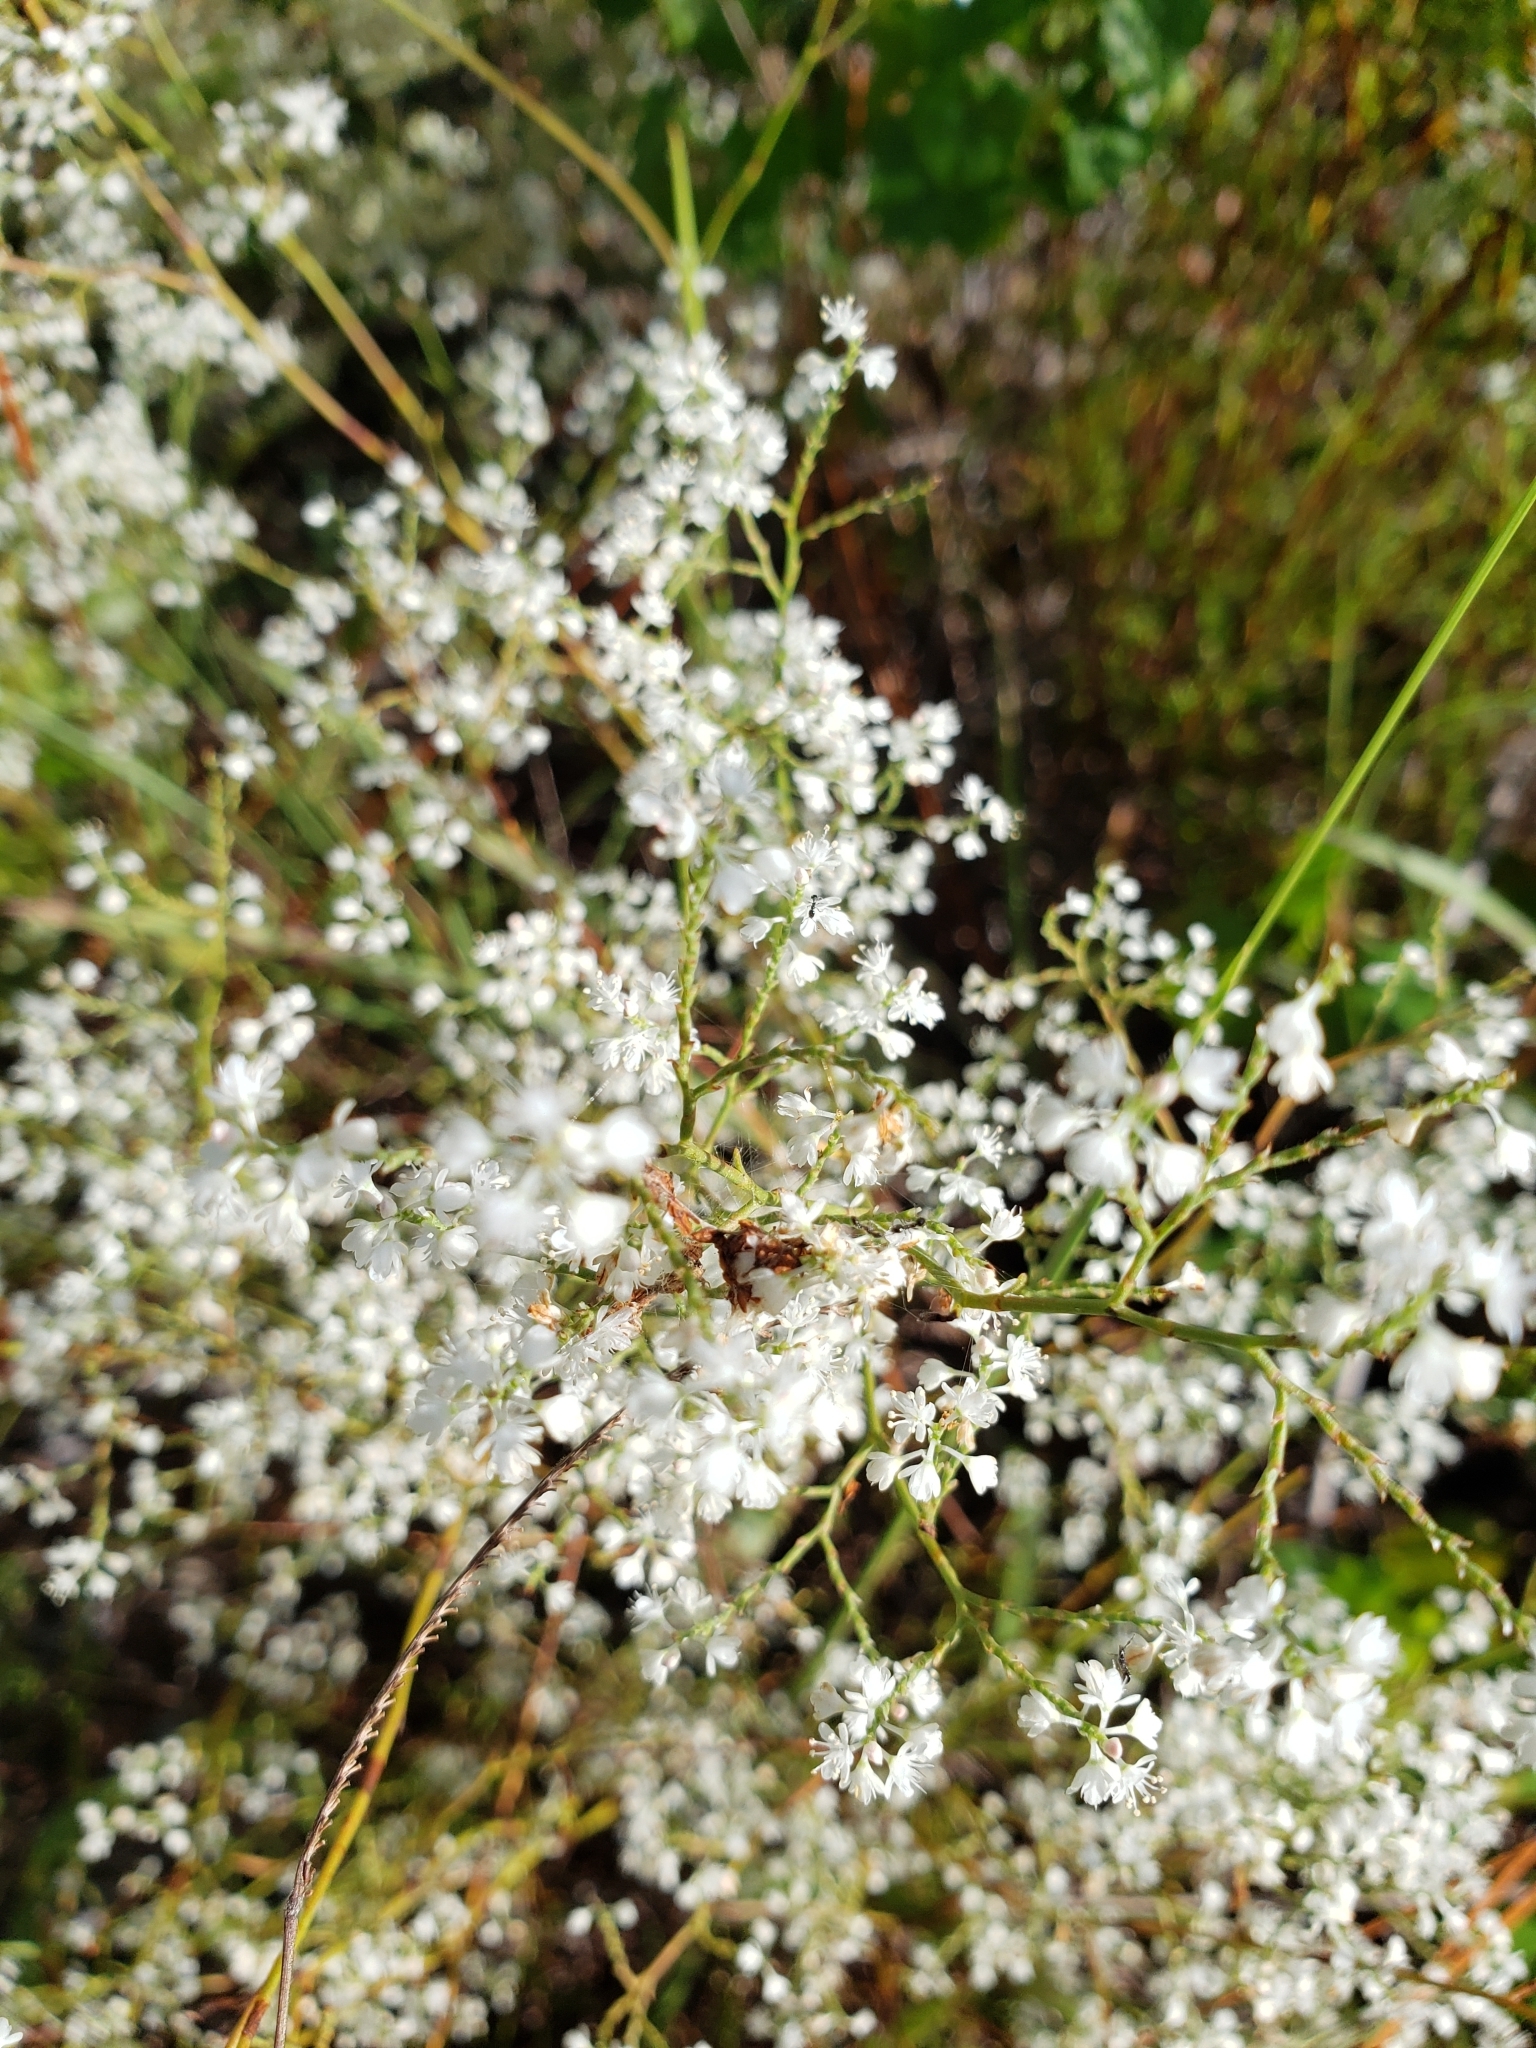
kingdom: Plantae
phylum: Tracheophyta
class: Magnoliopsida
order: Caryophyllales
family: Polygonaceae
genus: Polygonella
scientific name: Polygonella polygama
